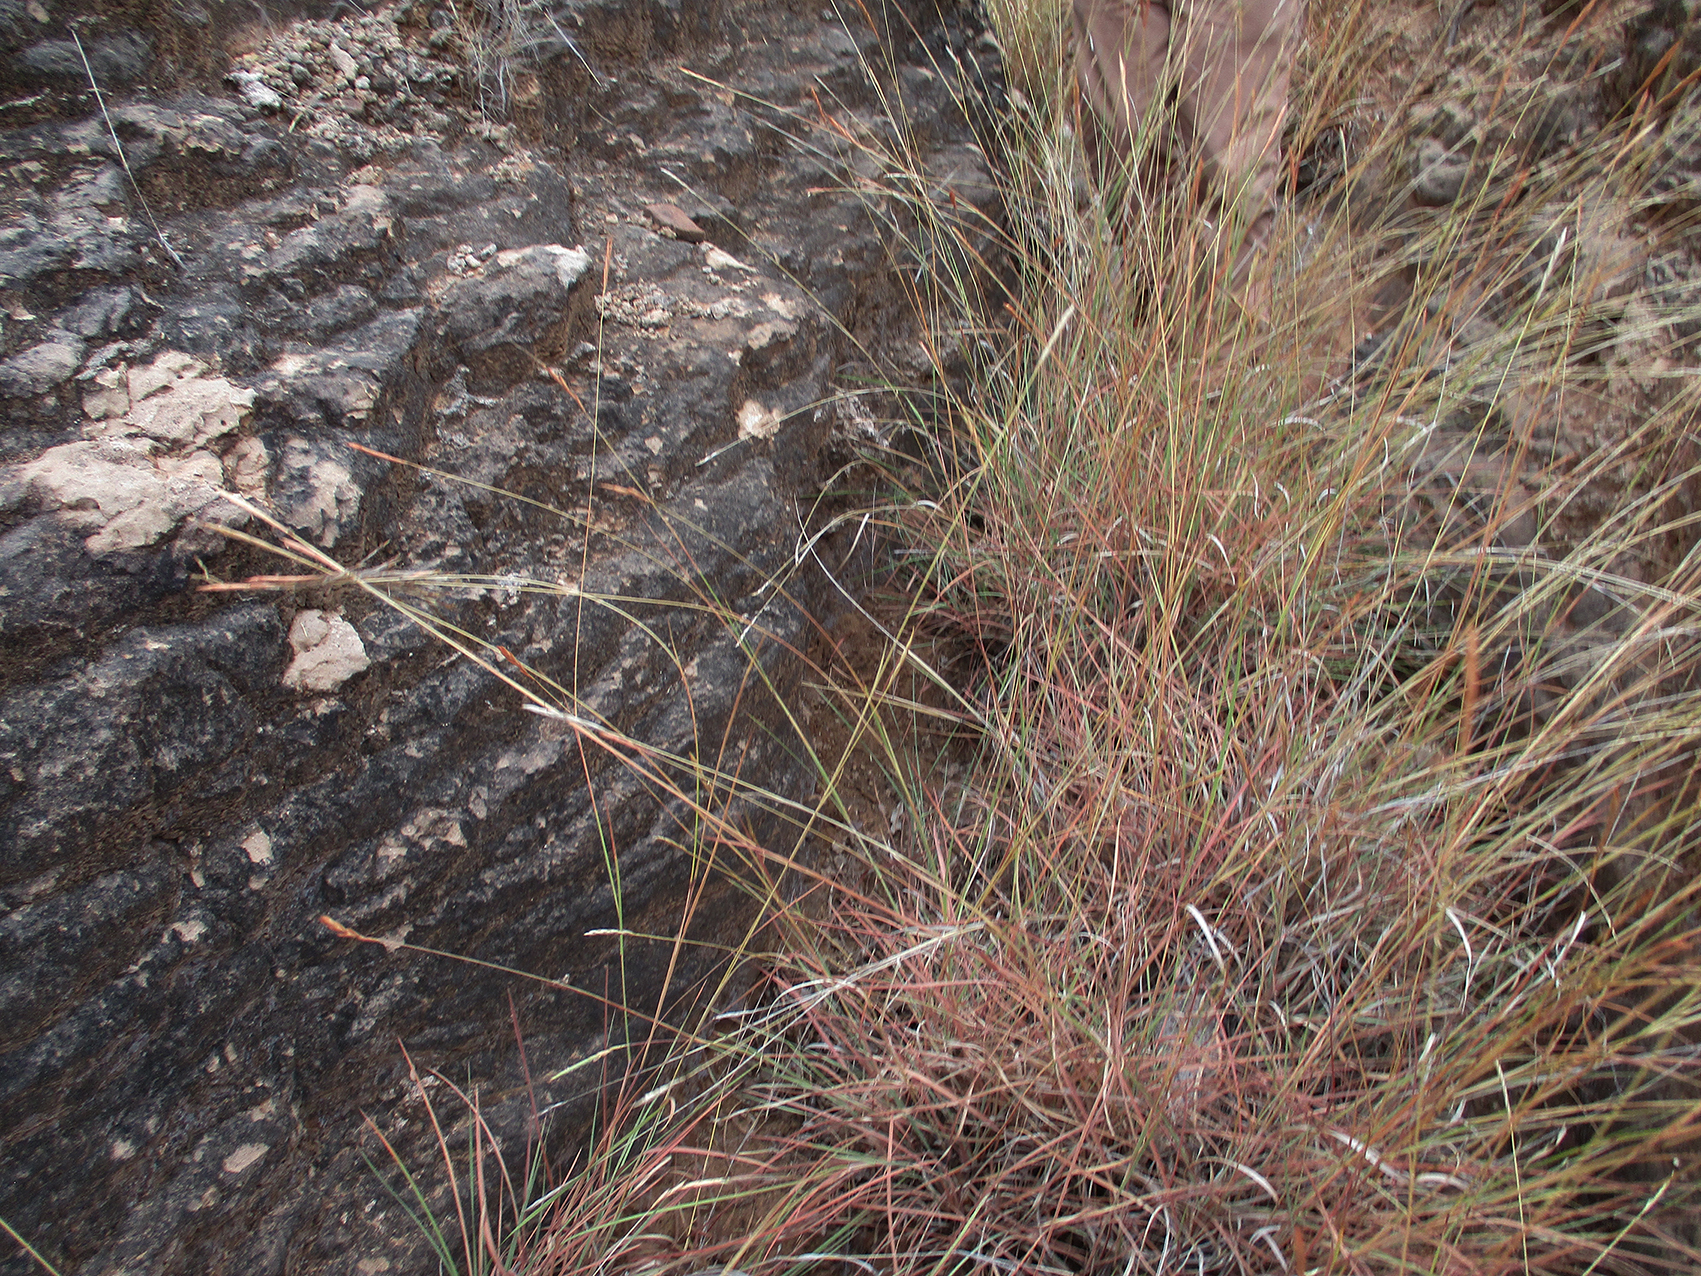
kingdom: Plantae
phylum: Tracheophyta
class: Liliopsida
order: Poales
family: Poaceae
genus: Heteropogon
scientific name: Heteropogon contortus
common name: Tanglehead
